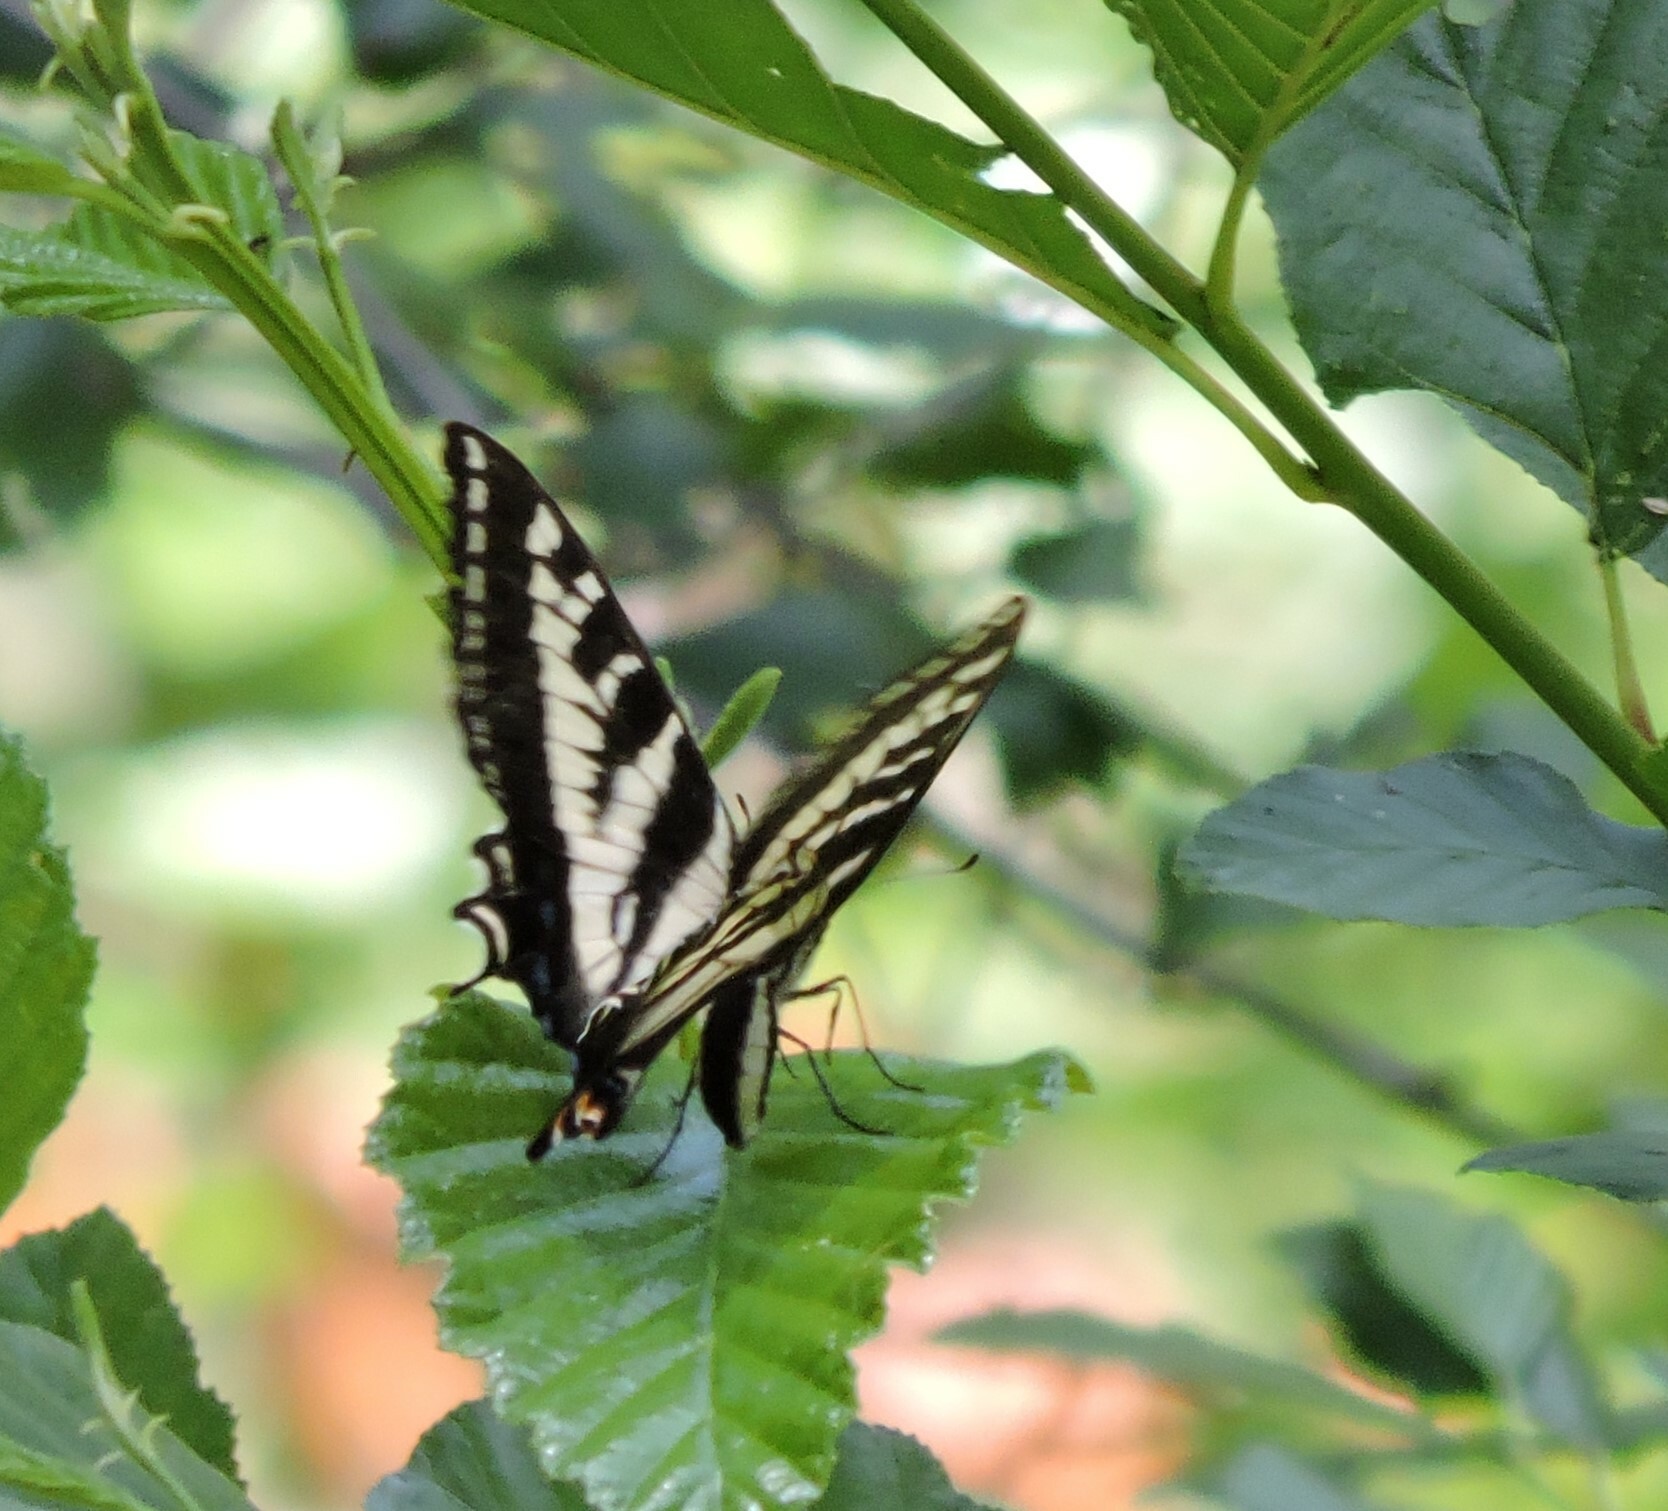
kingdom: Animalia
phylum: Arthropoda
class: Insecta
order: Lepidoptera
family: Papilionidae
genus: Papilio
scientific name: Papilio eurymedon
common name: Pale tiger swallowtail
